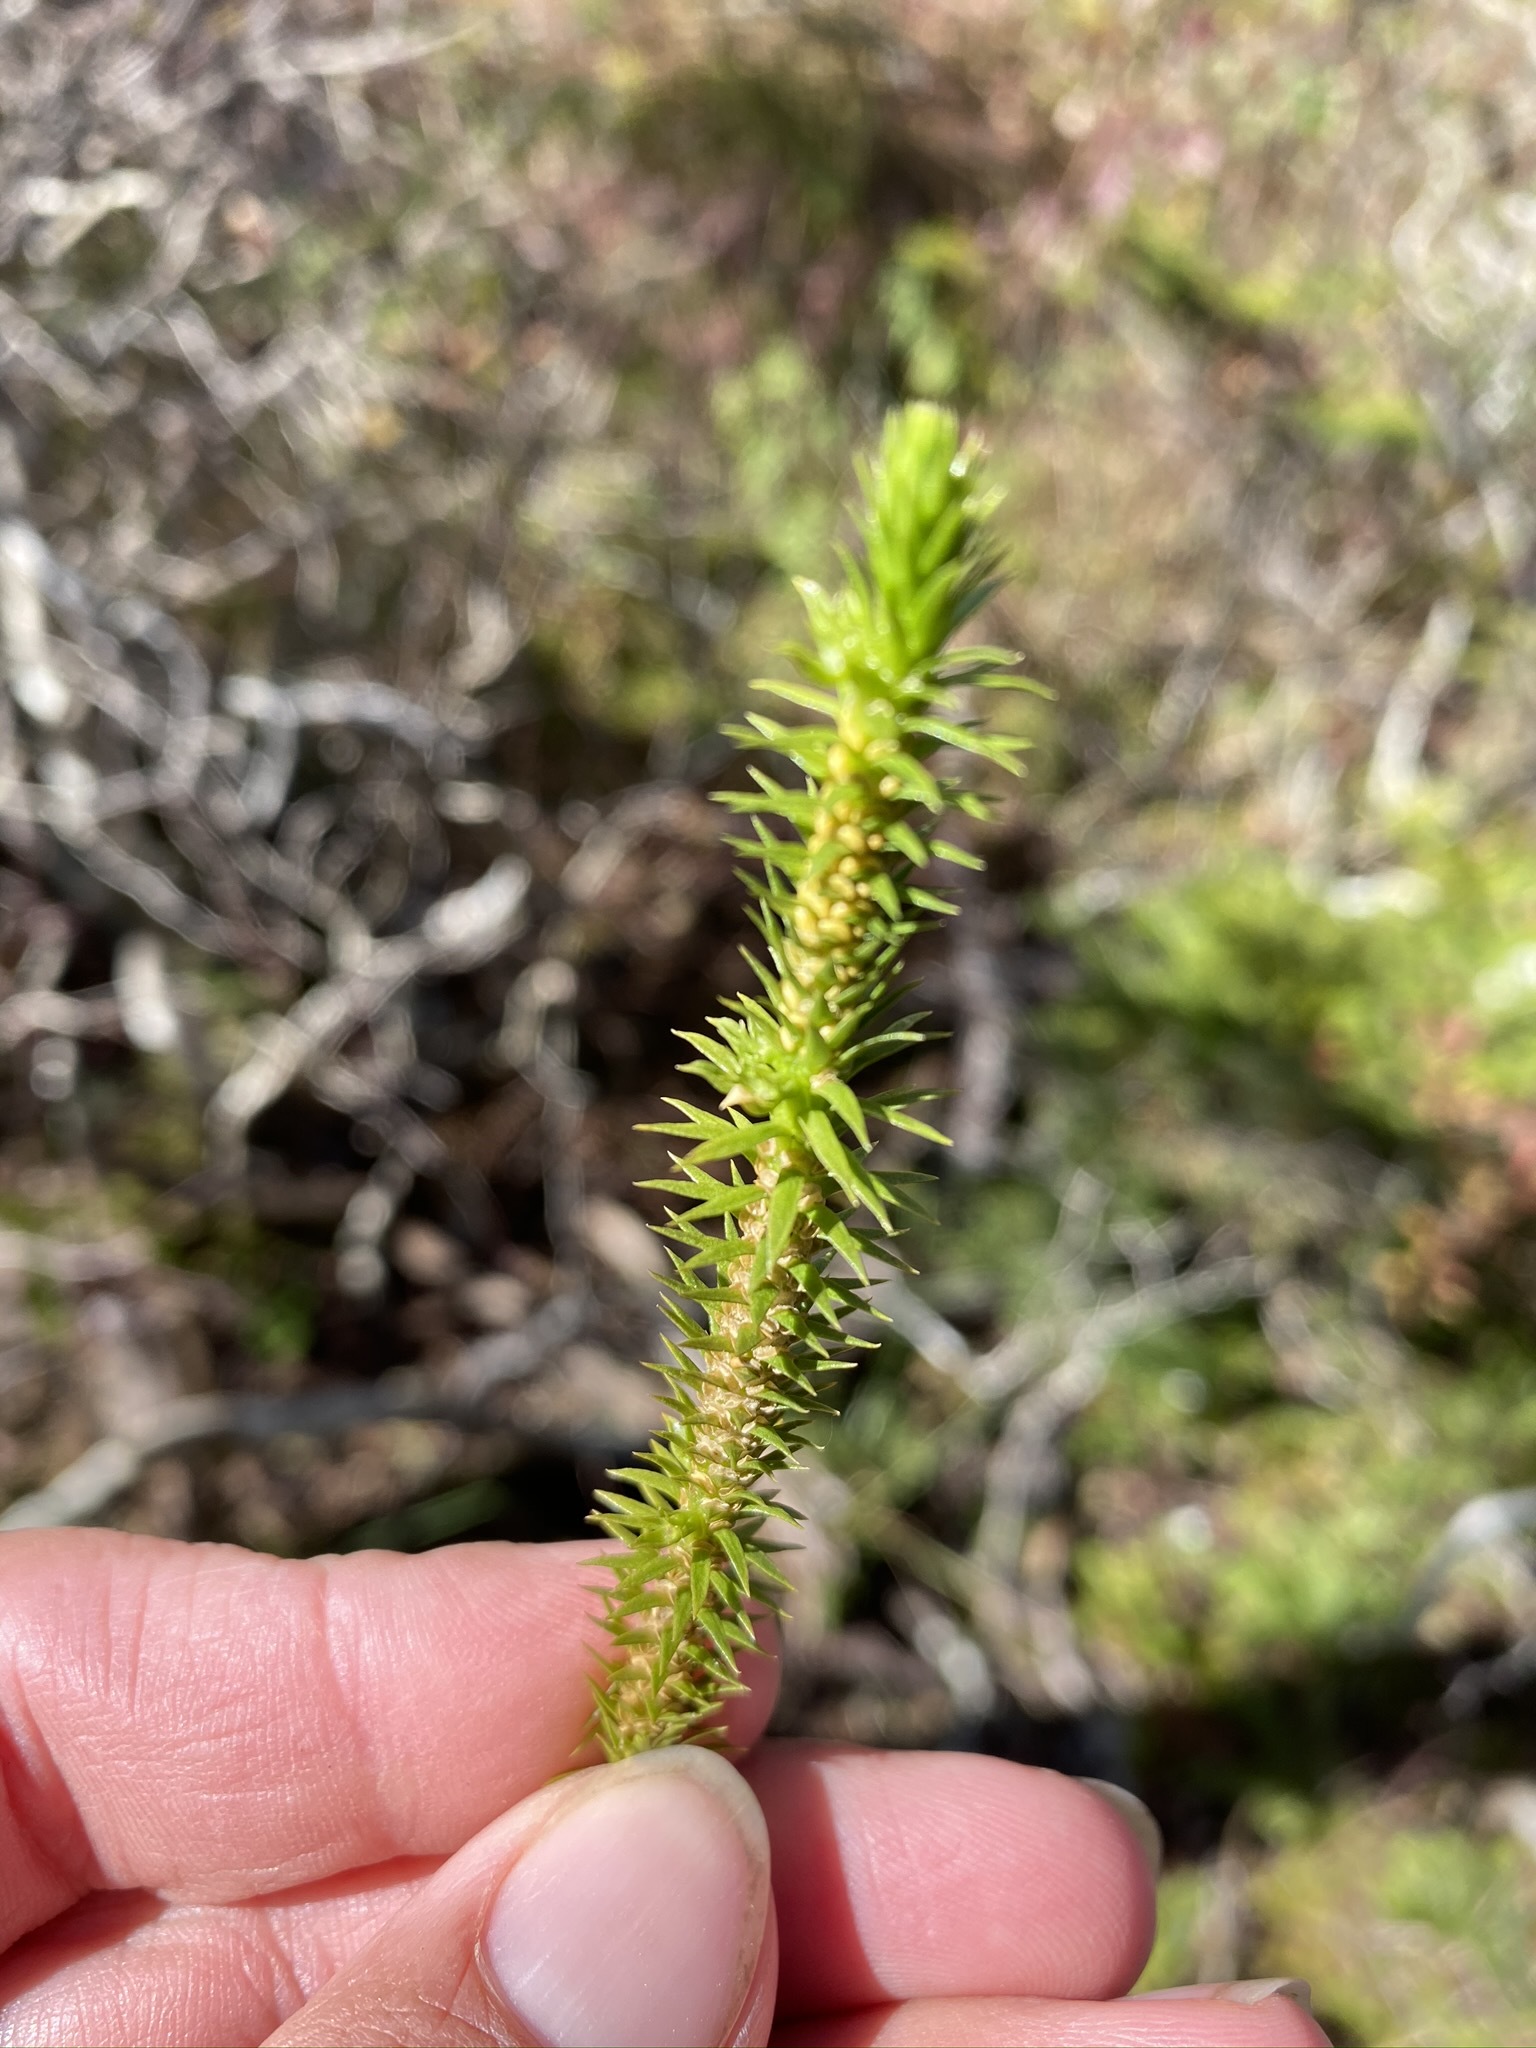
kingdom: Plantae
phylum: Tracheophyta
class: Lycopodiopsida
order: Lycopodiales
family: Lycopodiaceae
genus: Huperzia
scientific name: Huperzia lucidula
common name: Shining clubmoss
